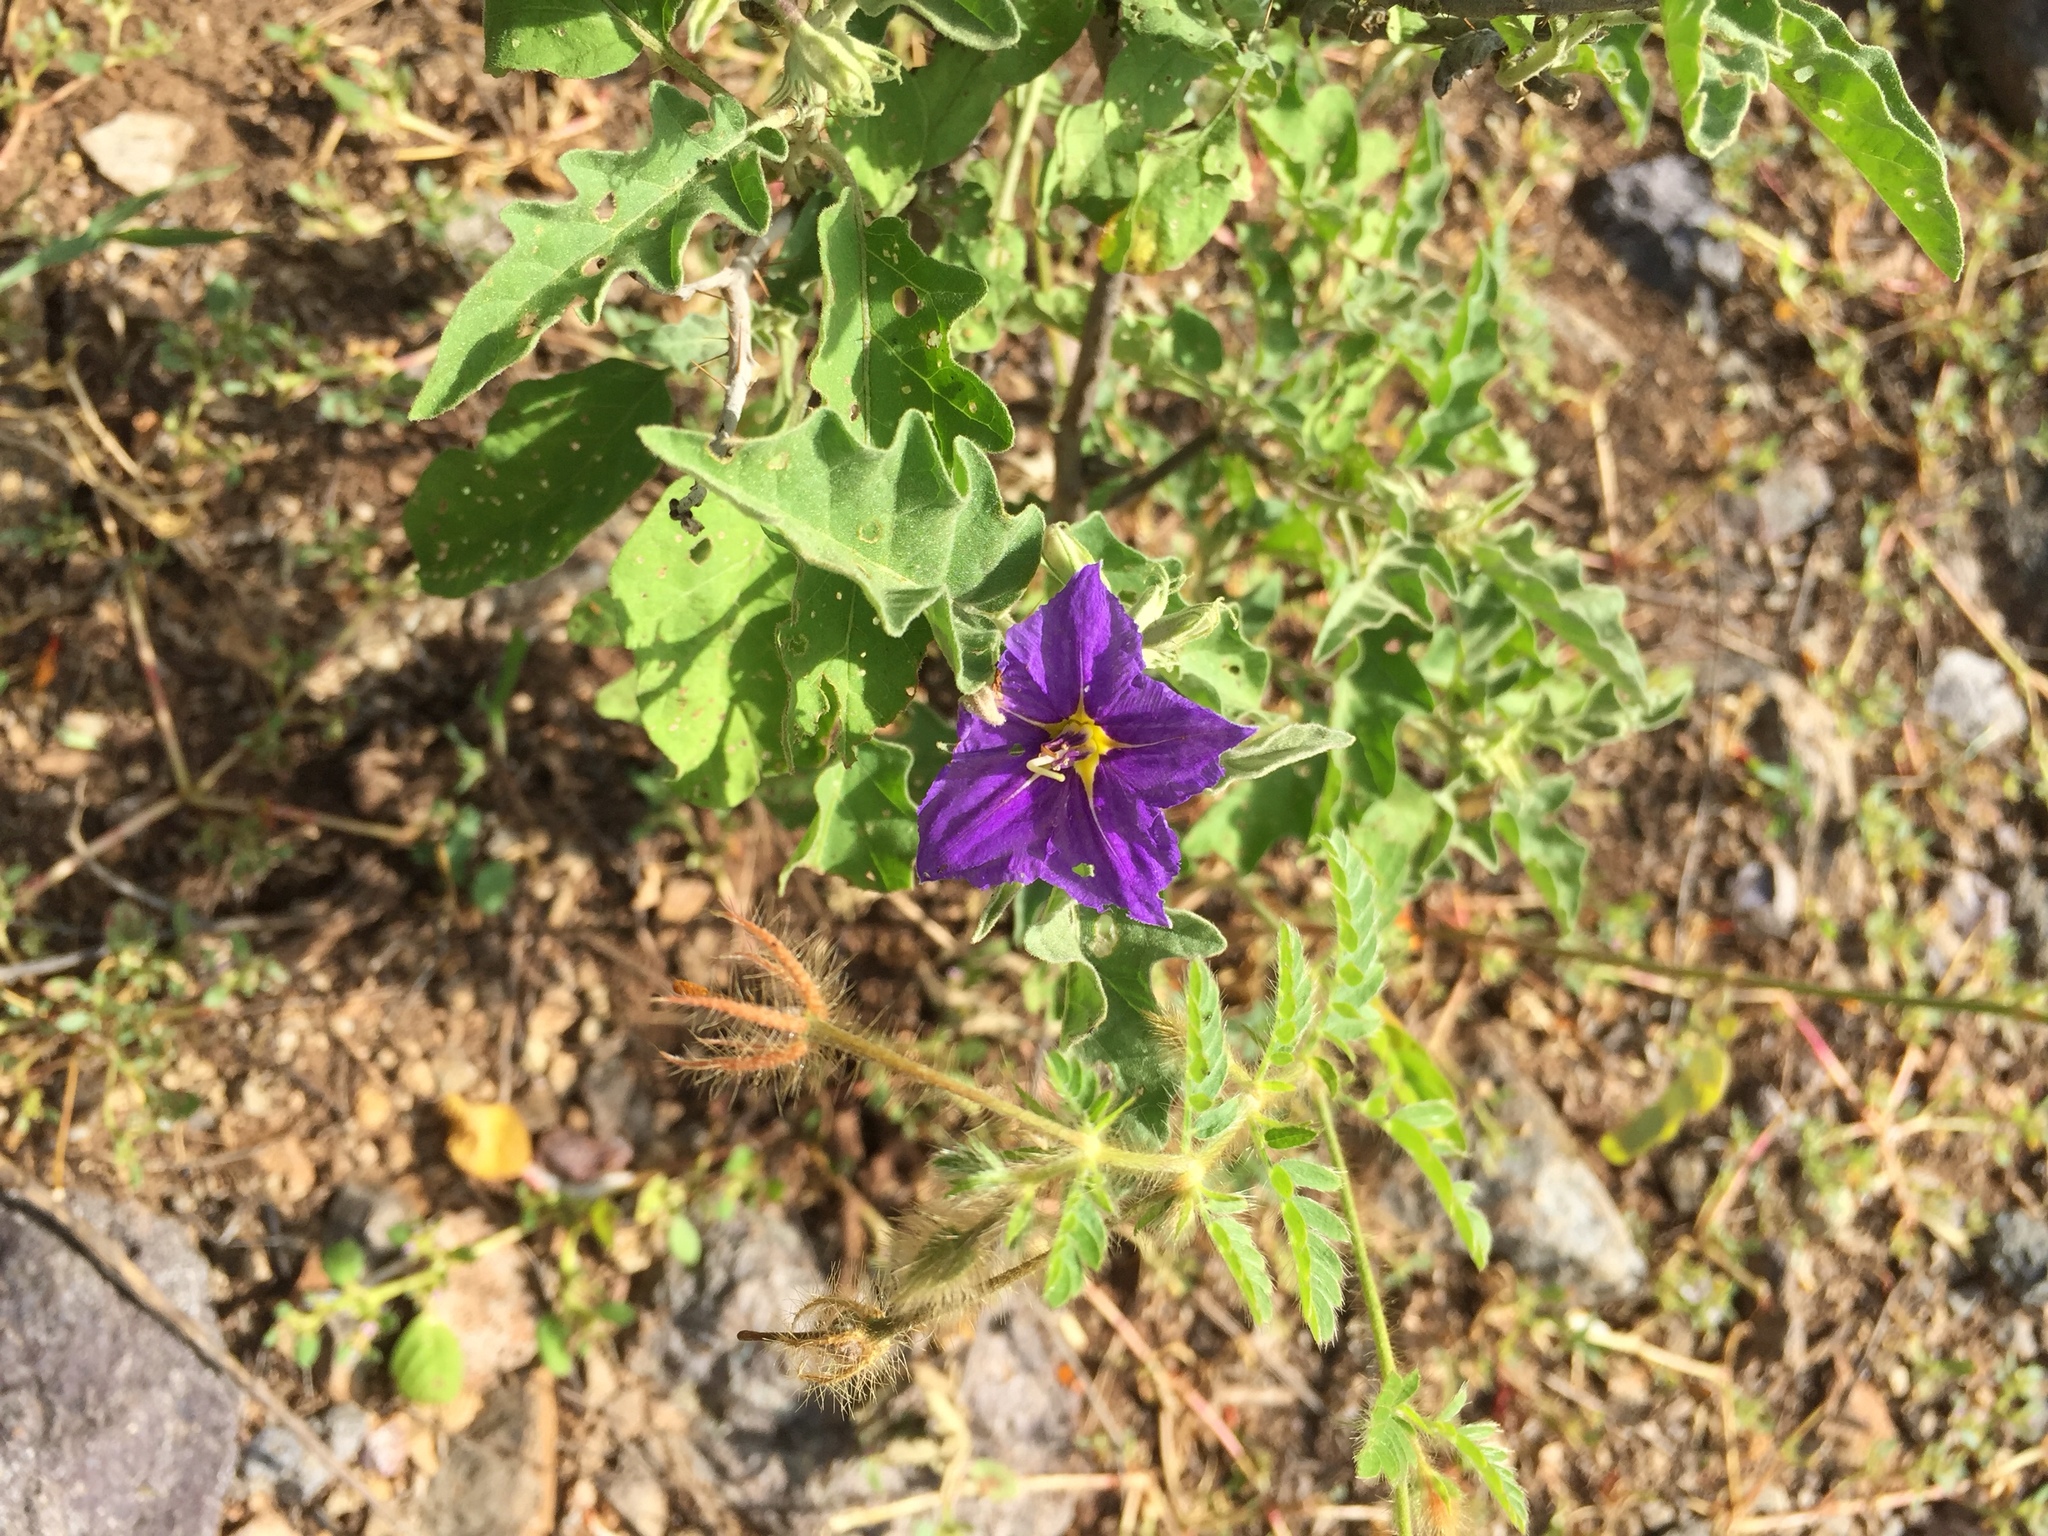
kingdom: Plantae
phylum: Tracheophyta
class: Magnoliopsida
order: Solanales
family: Solanaceae
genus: Solanum
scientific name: Solanum houstonii
